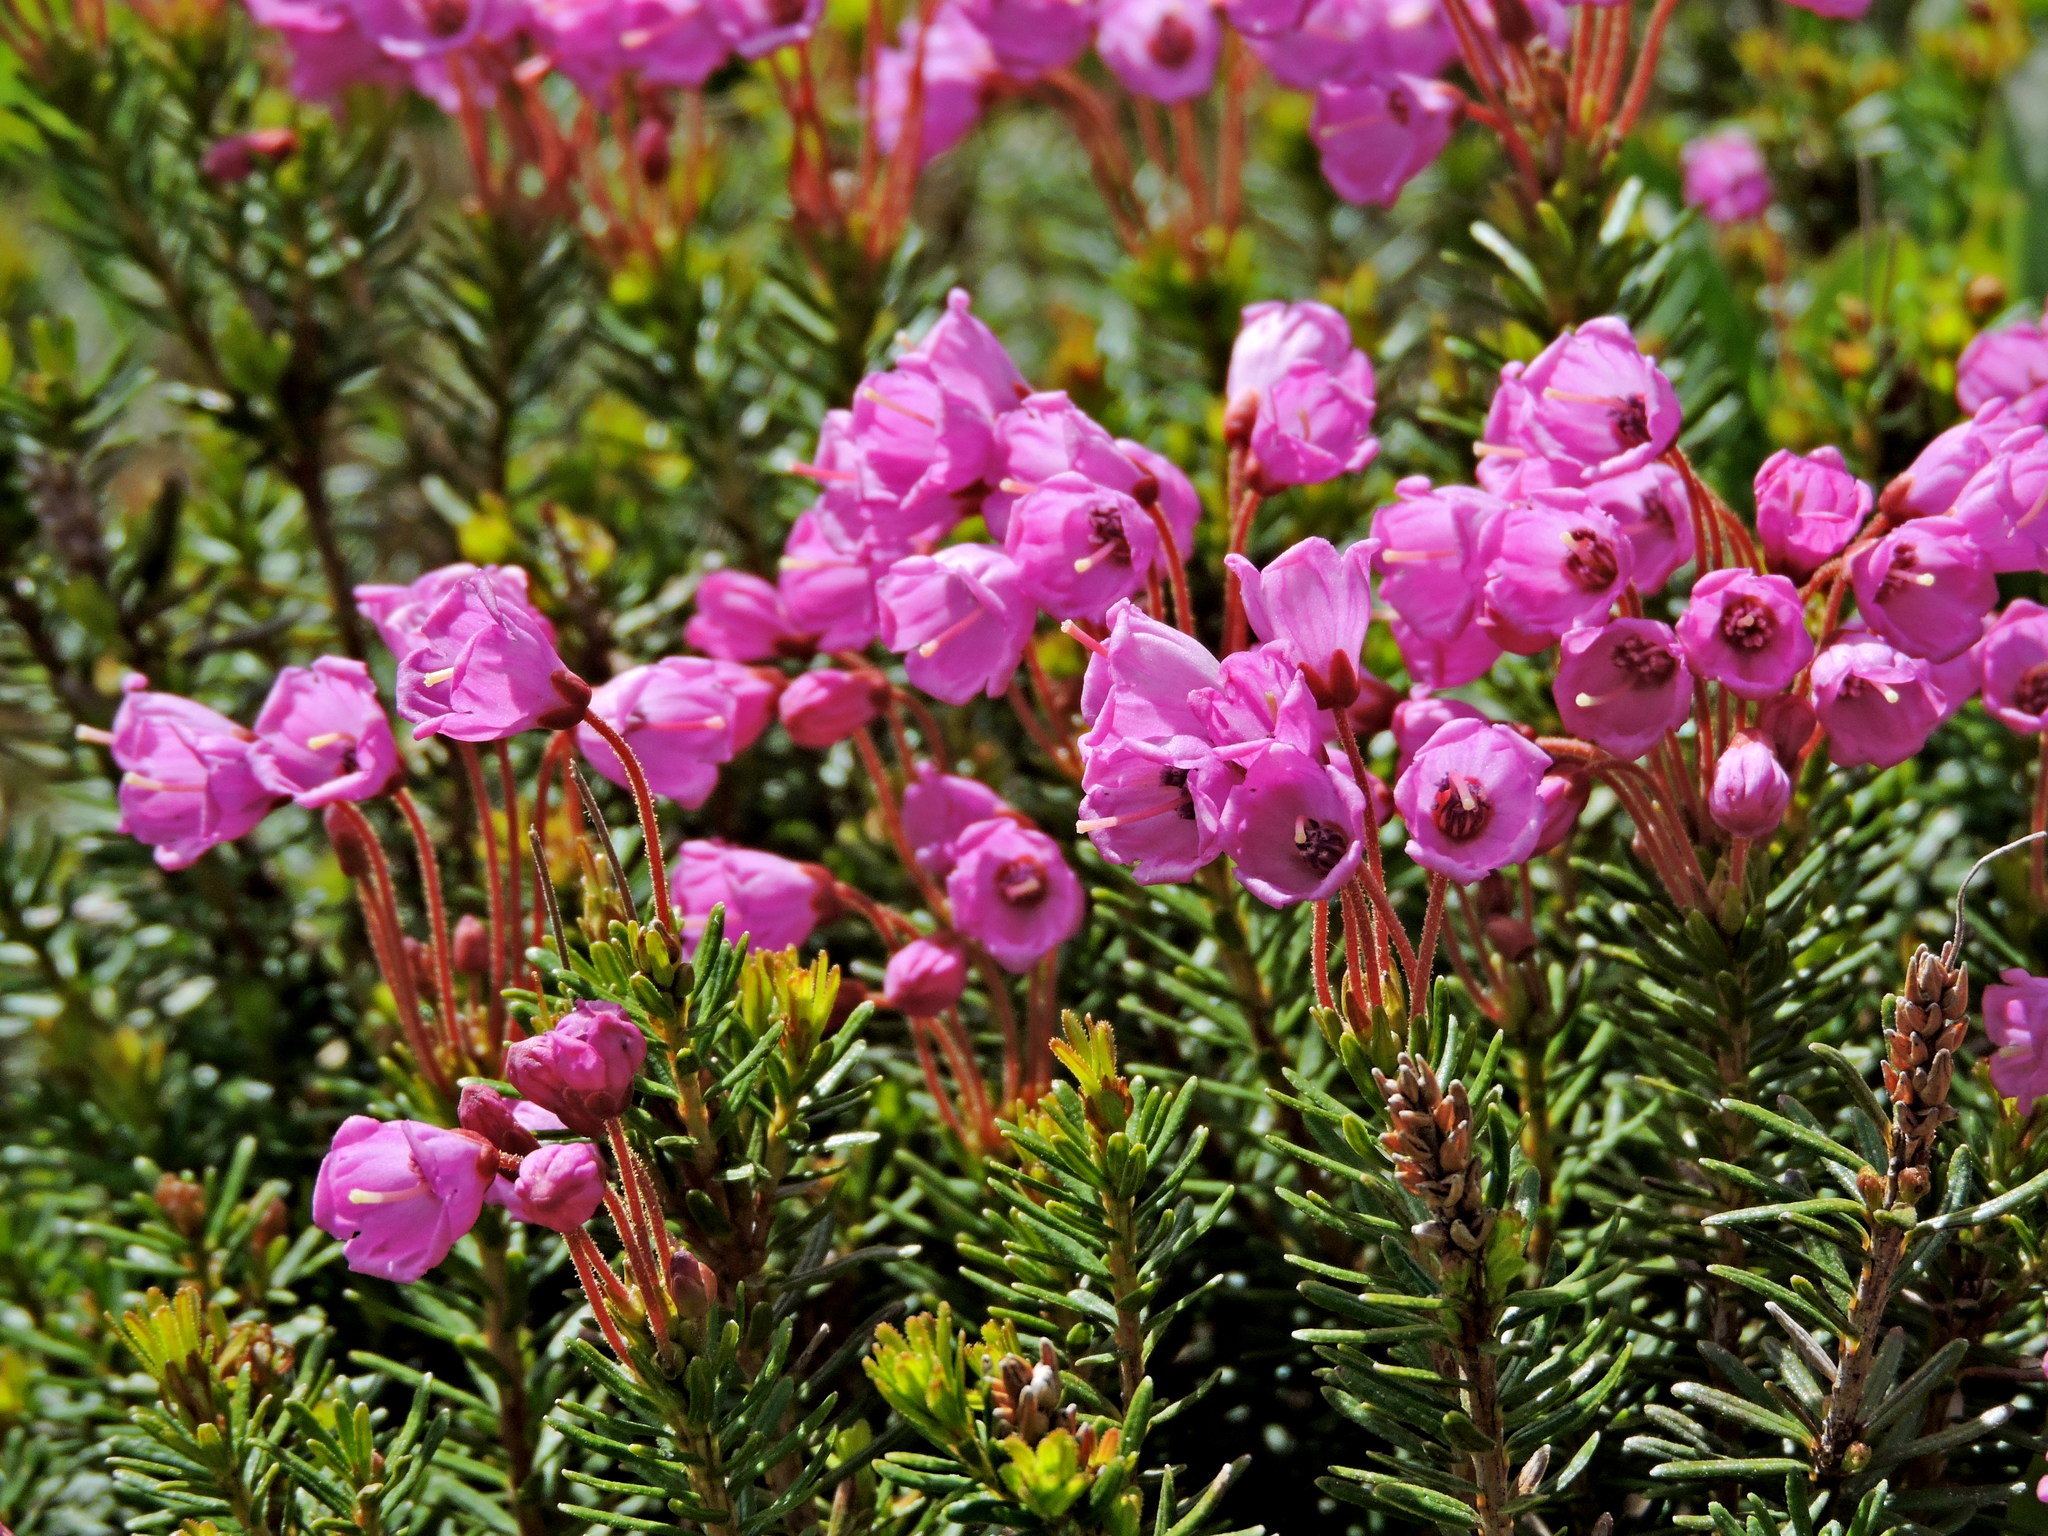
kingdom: Plantae
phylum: Tracheophyta
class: Magnoliopsida
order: Ericales
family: Ericaceae
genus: Phyllodoce
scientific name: Phyllodoce empetriformis
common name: Pink mountain heather
